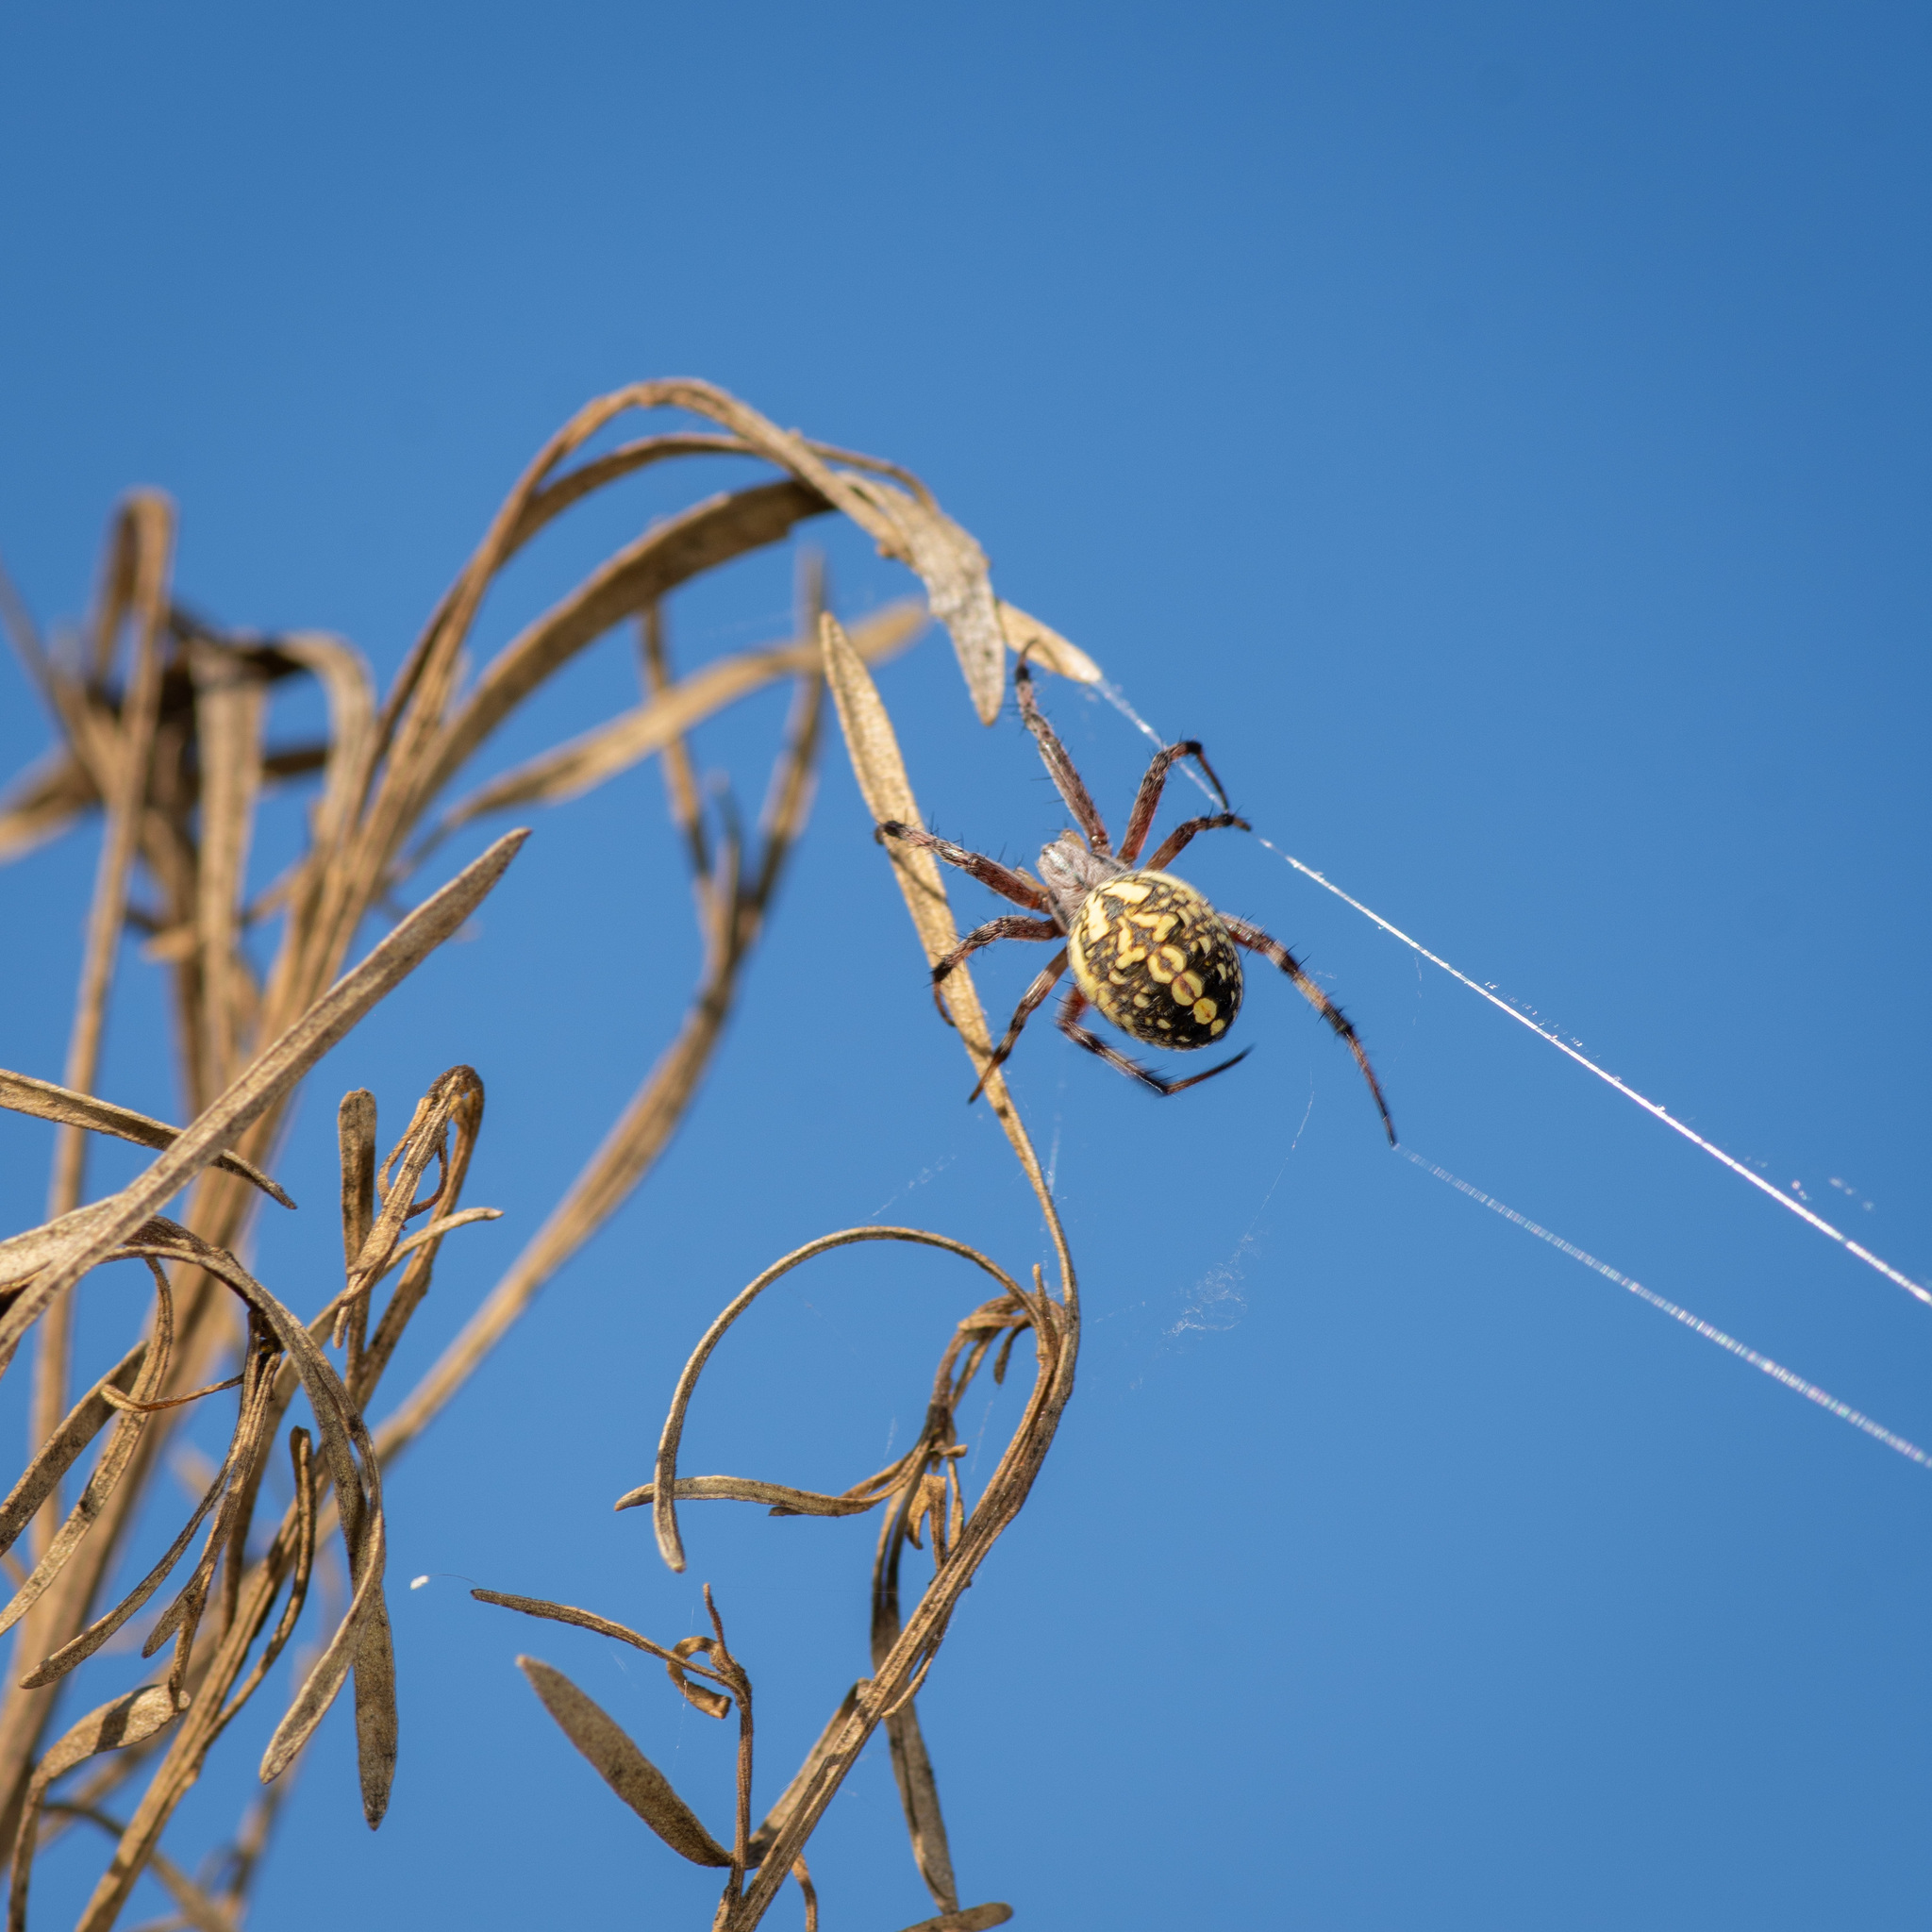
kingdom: Animalia
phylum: Arthropoda
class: Arachnida
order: Araneae
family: Araneidae
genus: Neoscona
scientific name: Neoscona oaxacensis
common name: Orb weavers
